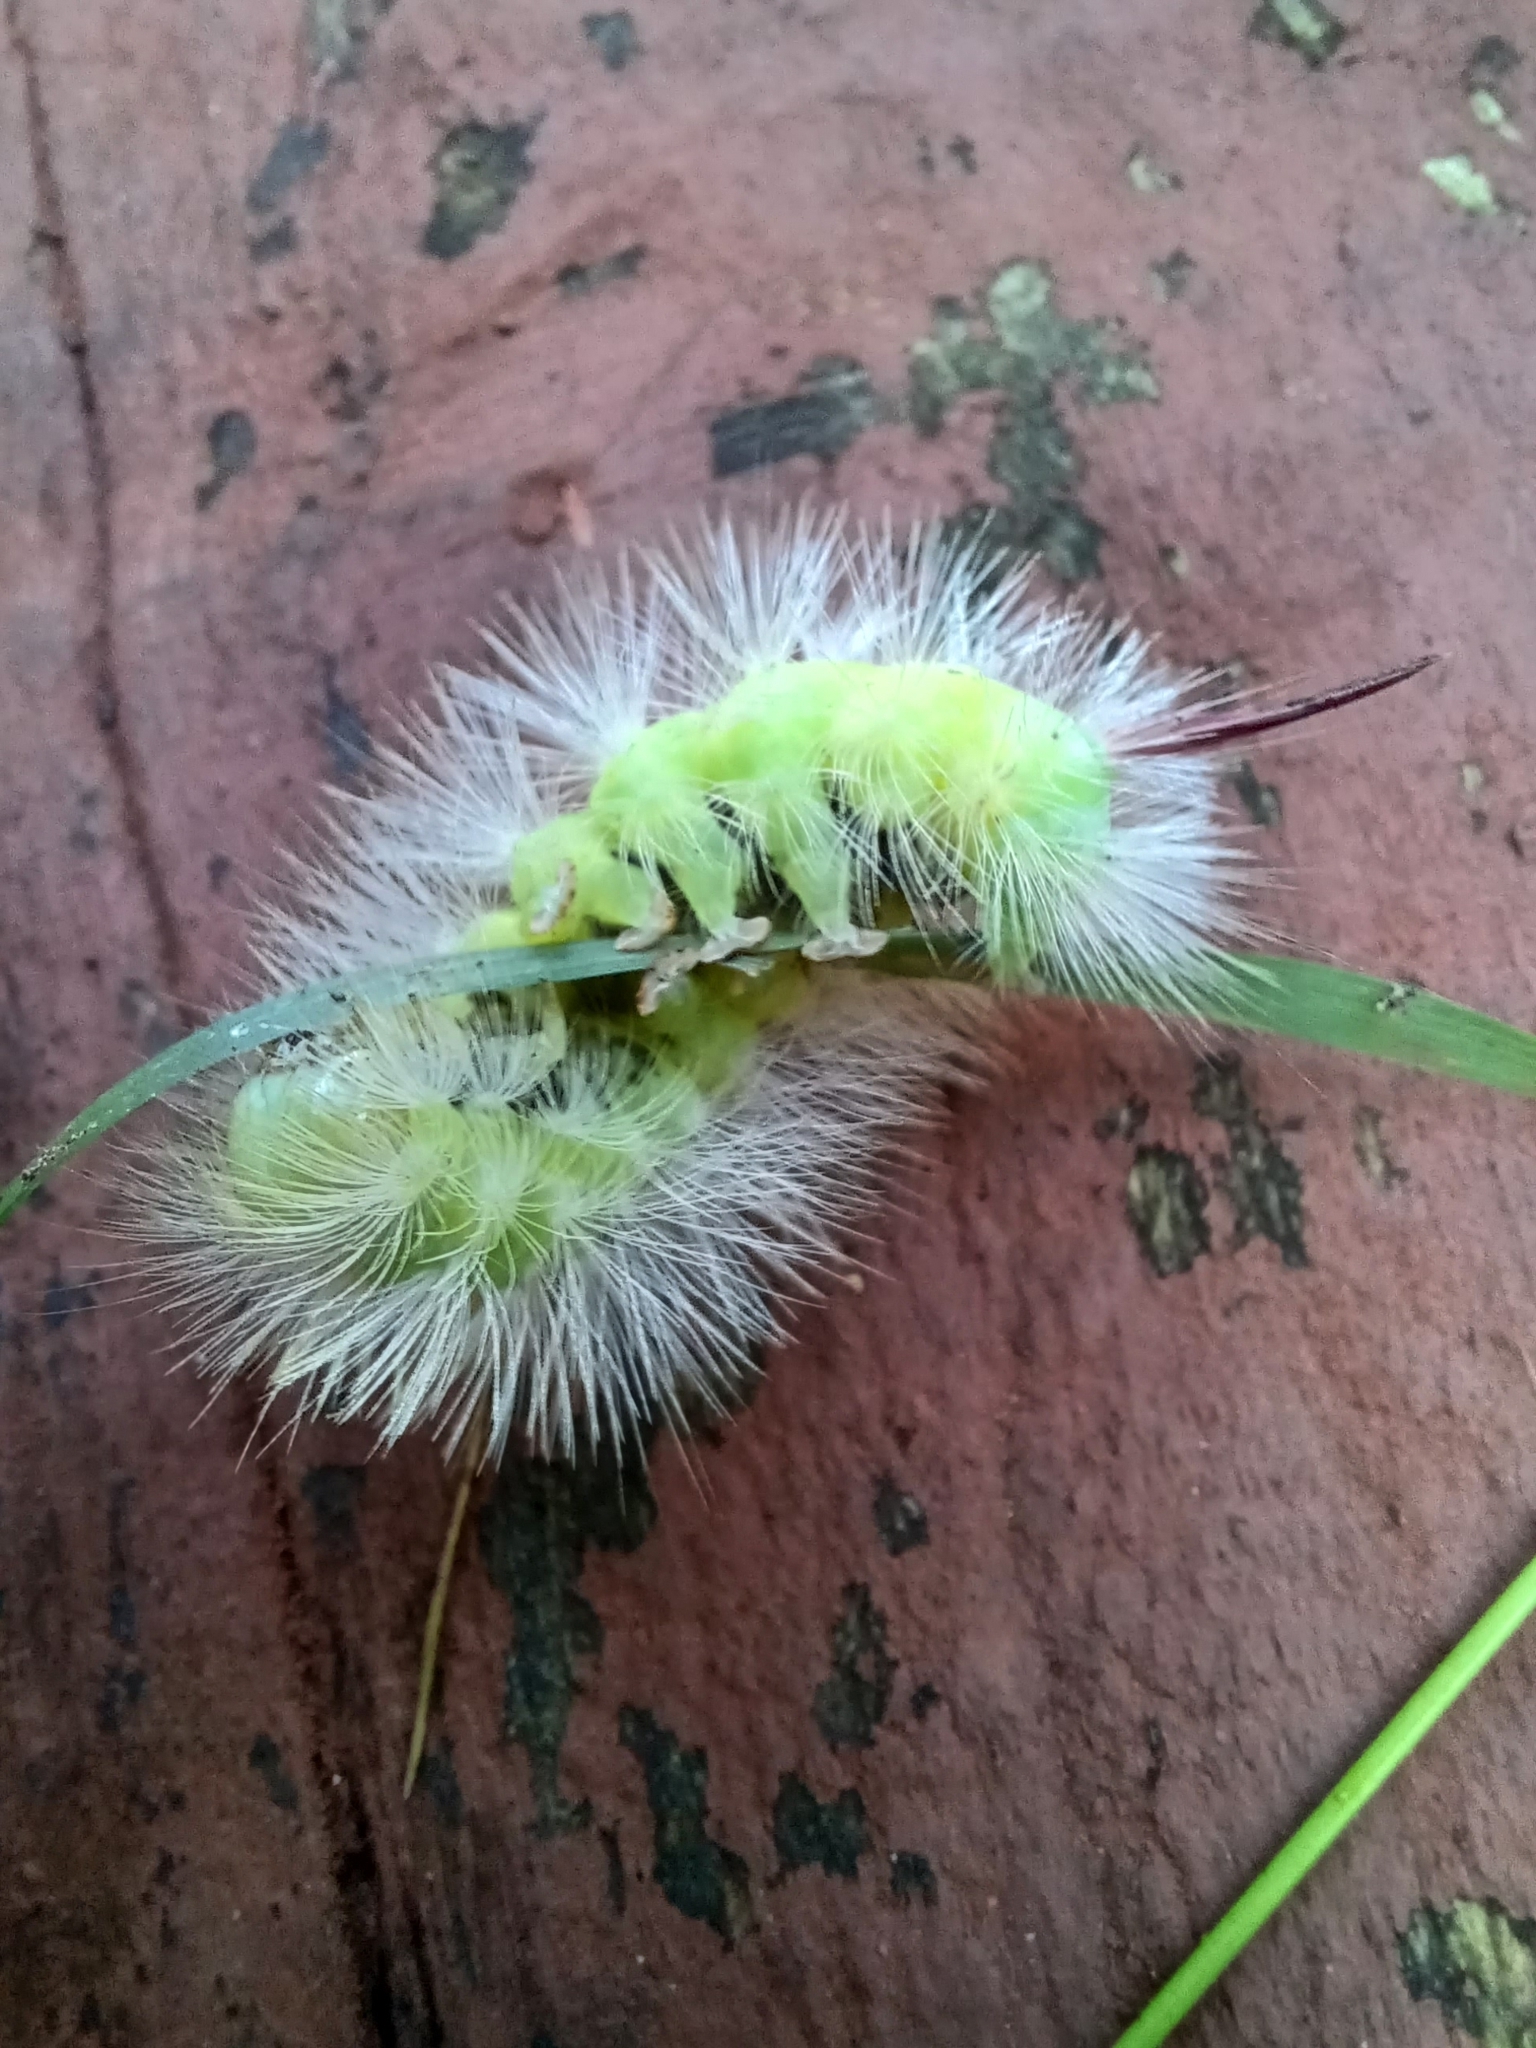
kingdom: Animalia
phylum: Arthropoda
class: Insecta
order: Lepidoptera
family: Erebidae
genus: Calliteara
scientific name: Calliteara pudibunda
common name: Pale tussock
